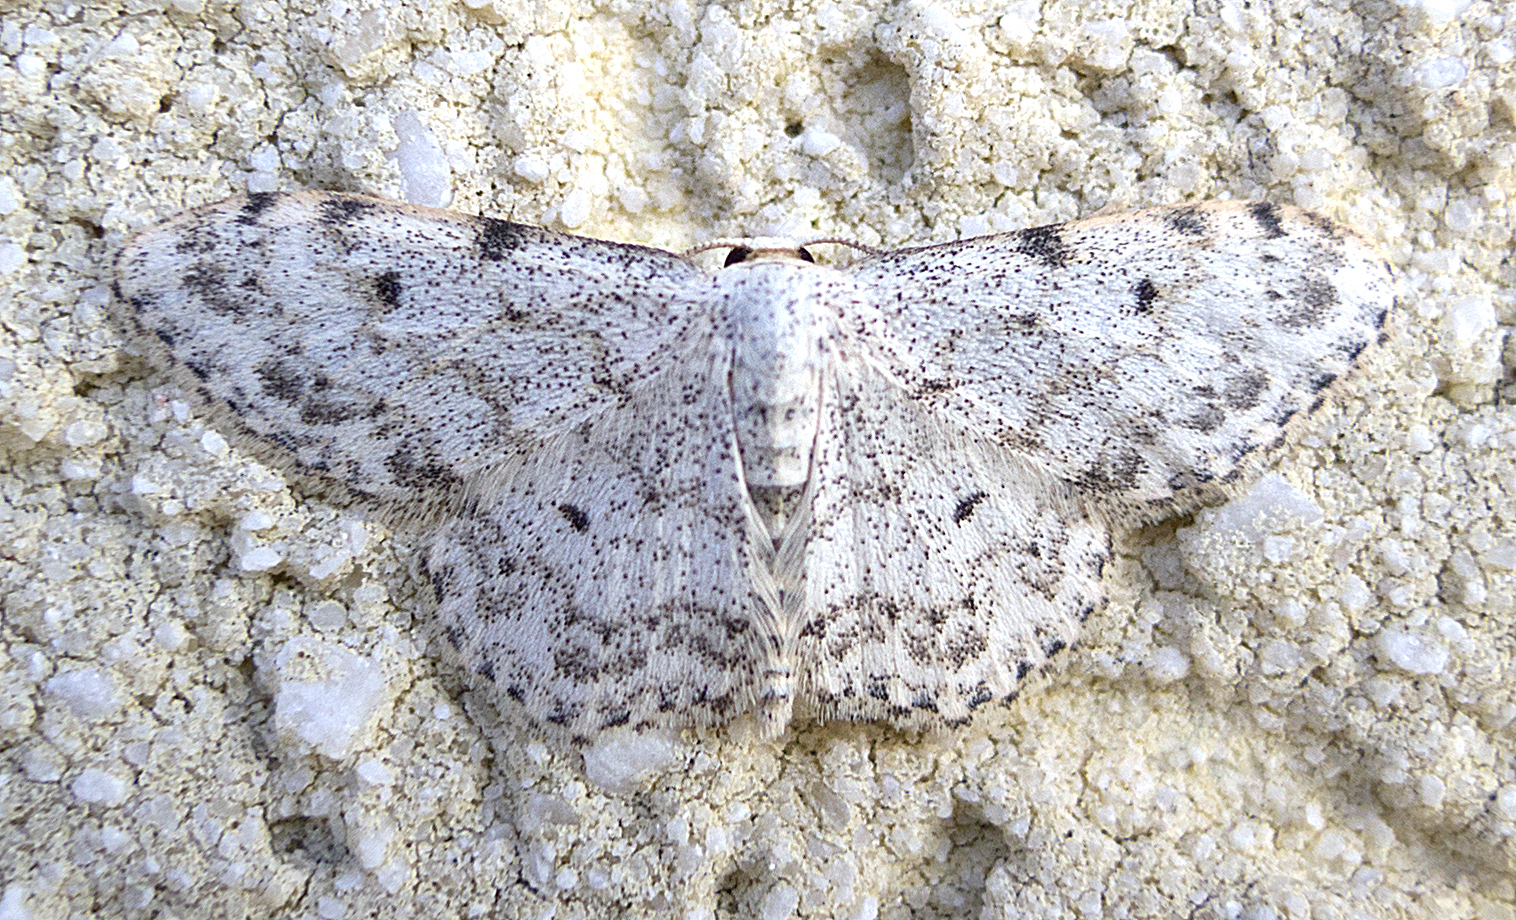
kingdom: Animalia
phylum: Arthropoda
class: Insecta
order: Lepidoptera
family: Geometridae
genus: Idaea
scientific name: Idaea camparia
